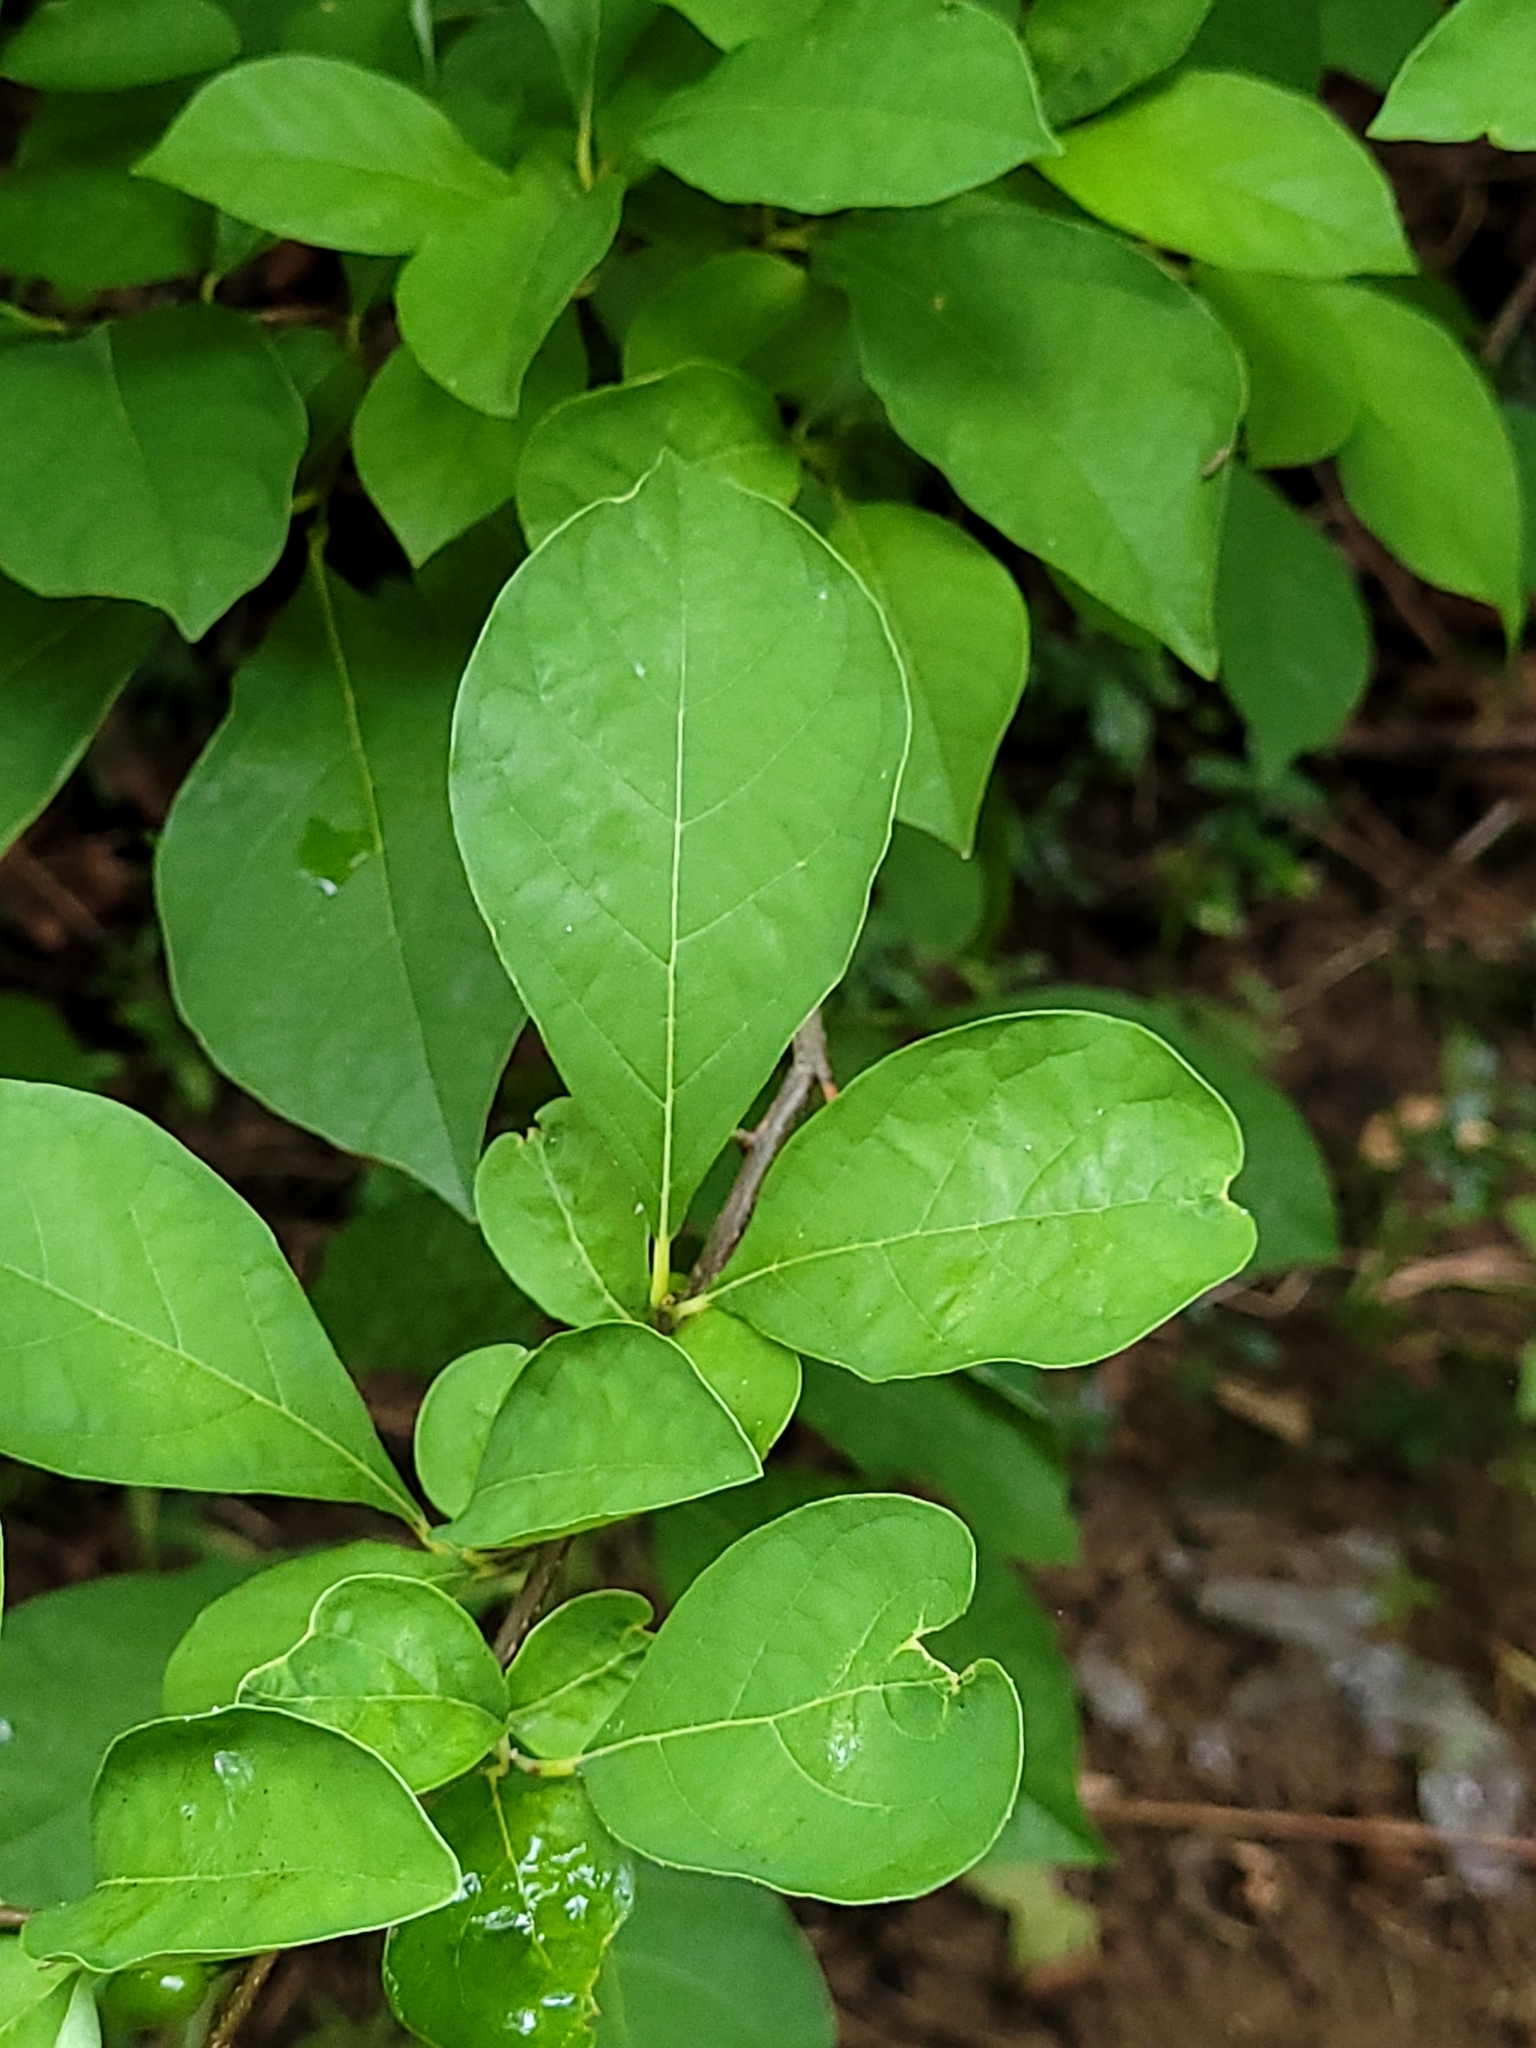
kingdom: Plantae
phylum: Tracheophyta
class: Magnoliopsida
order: Laurales
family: Lauraceae
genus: Lindera
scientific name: Lindera benzoin
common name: Spicebush
